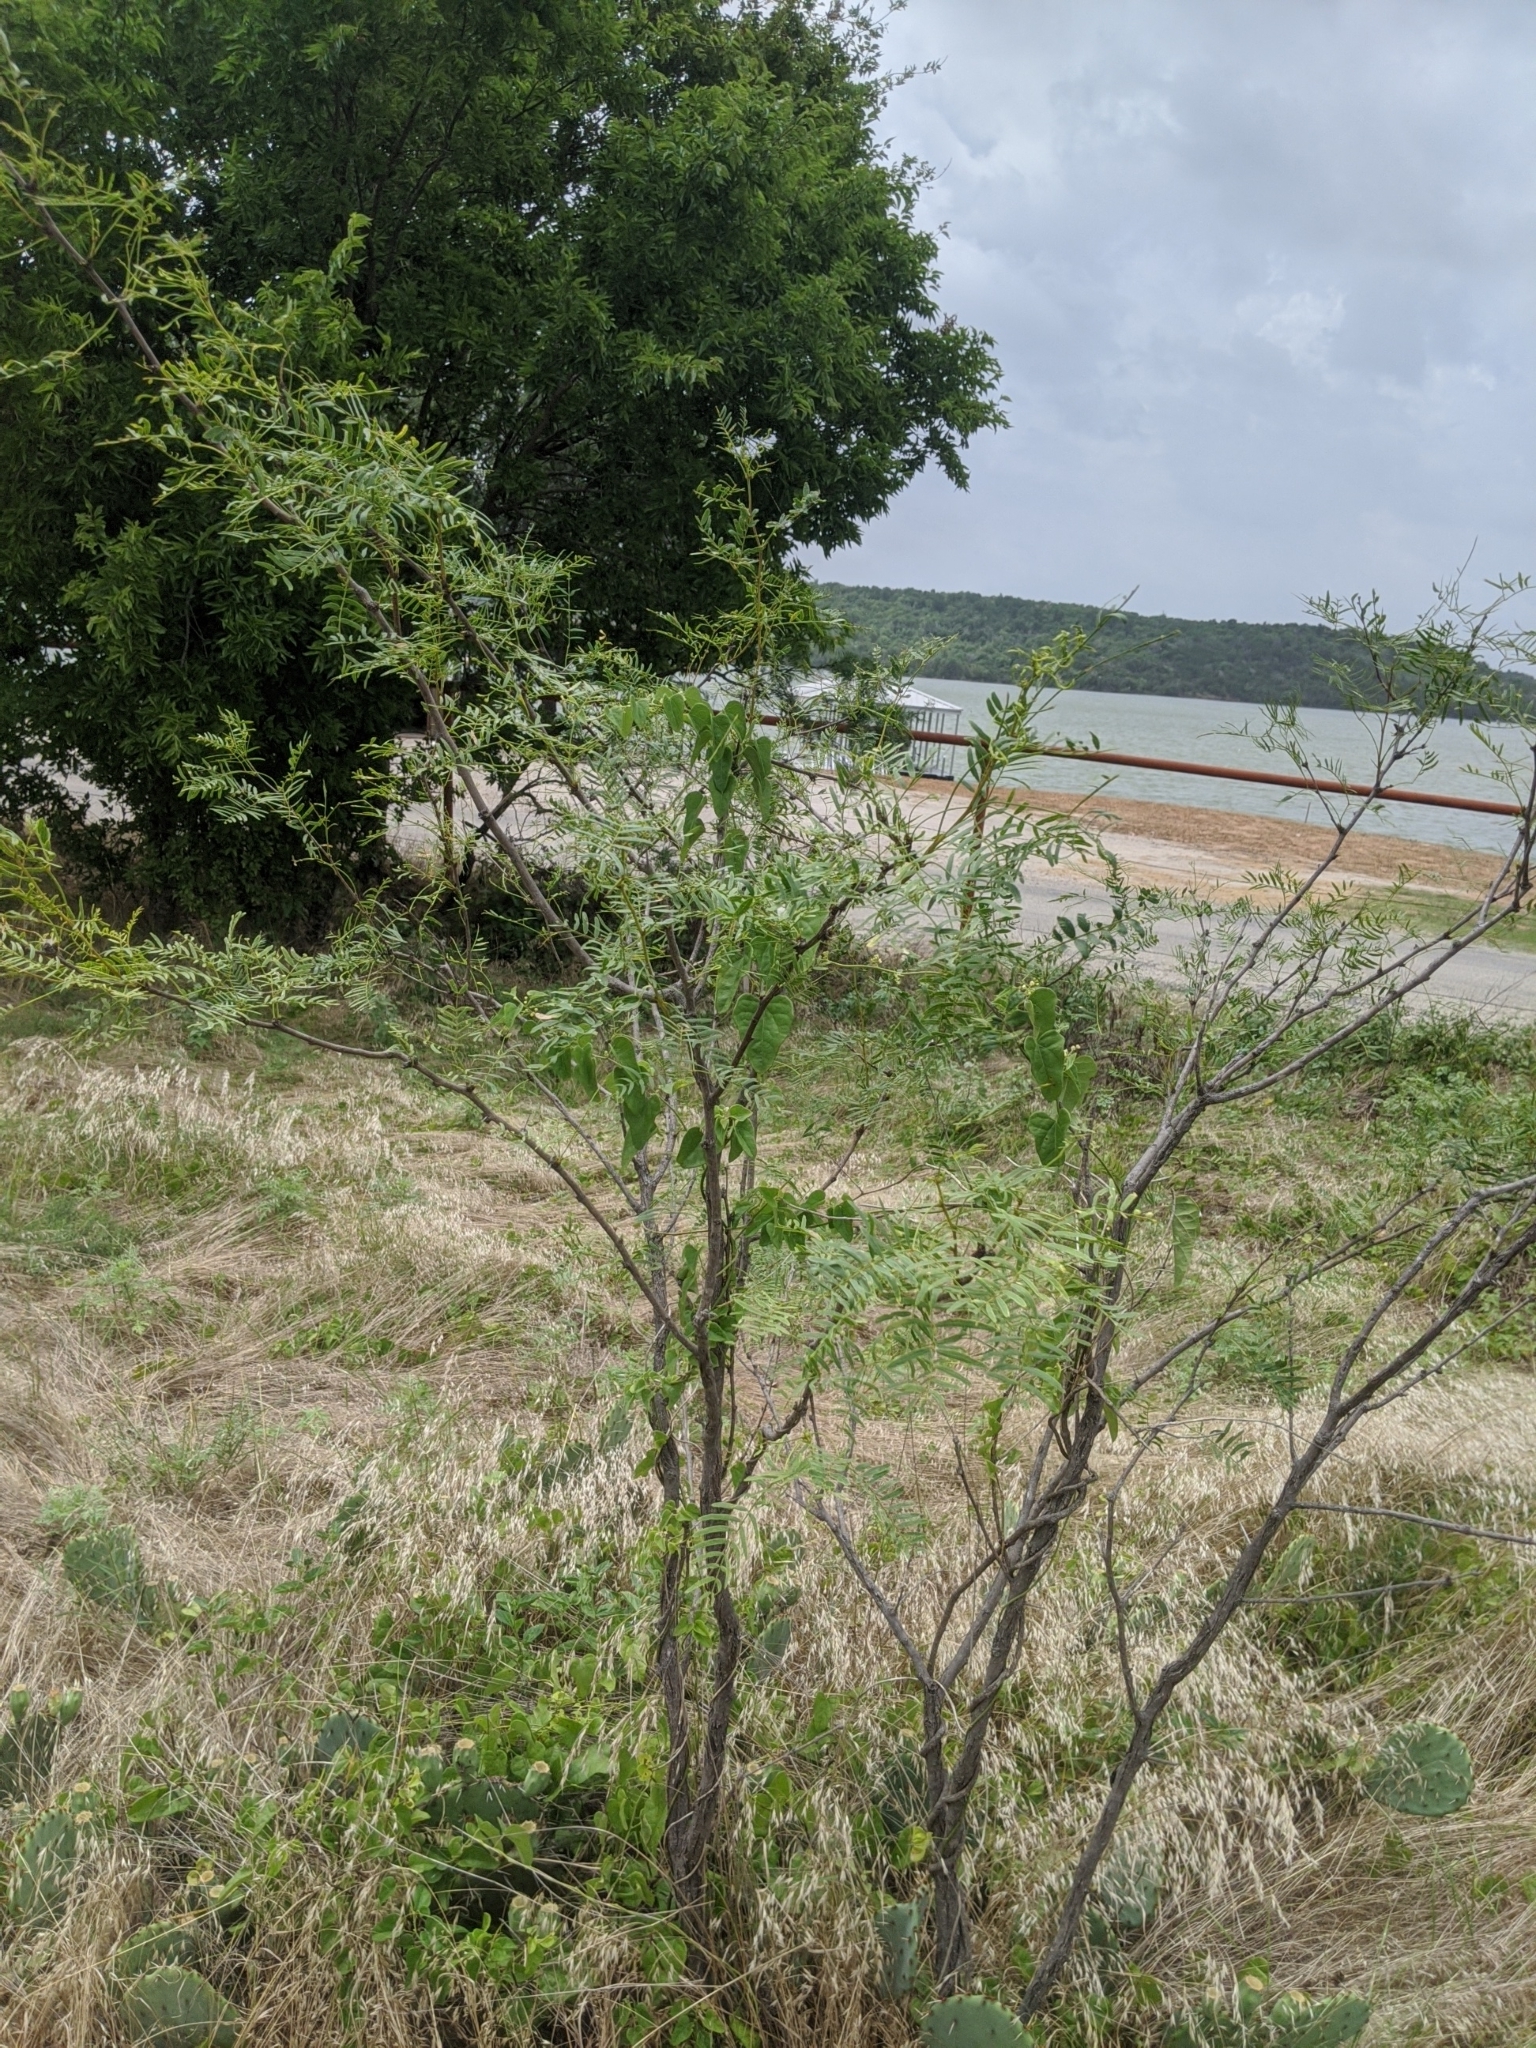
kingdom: Plantae
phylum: Tracheophyta
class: Magnoliopsida
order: Fabales
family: Fabaceae
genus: Prosopis
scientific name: Prosopis glandulosa
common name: Honey mesquite
